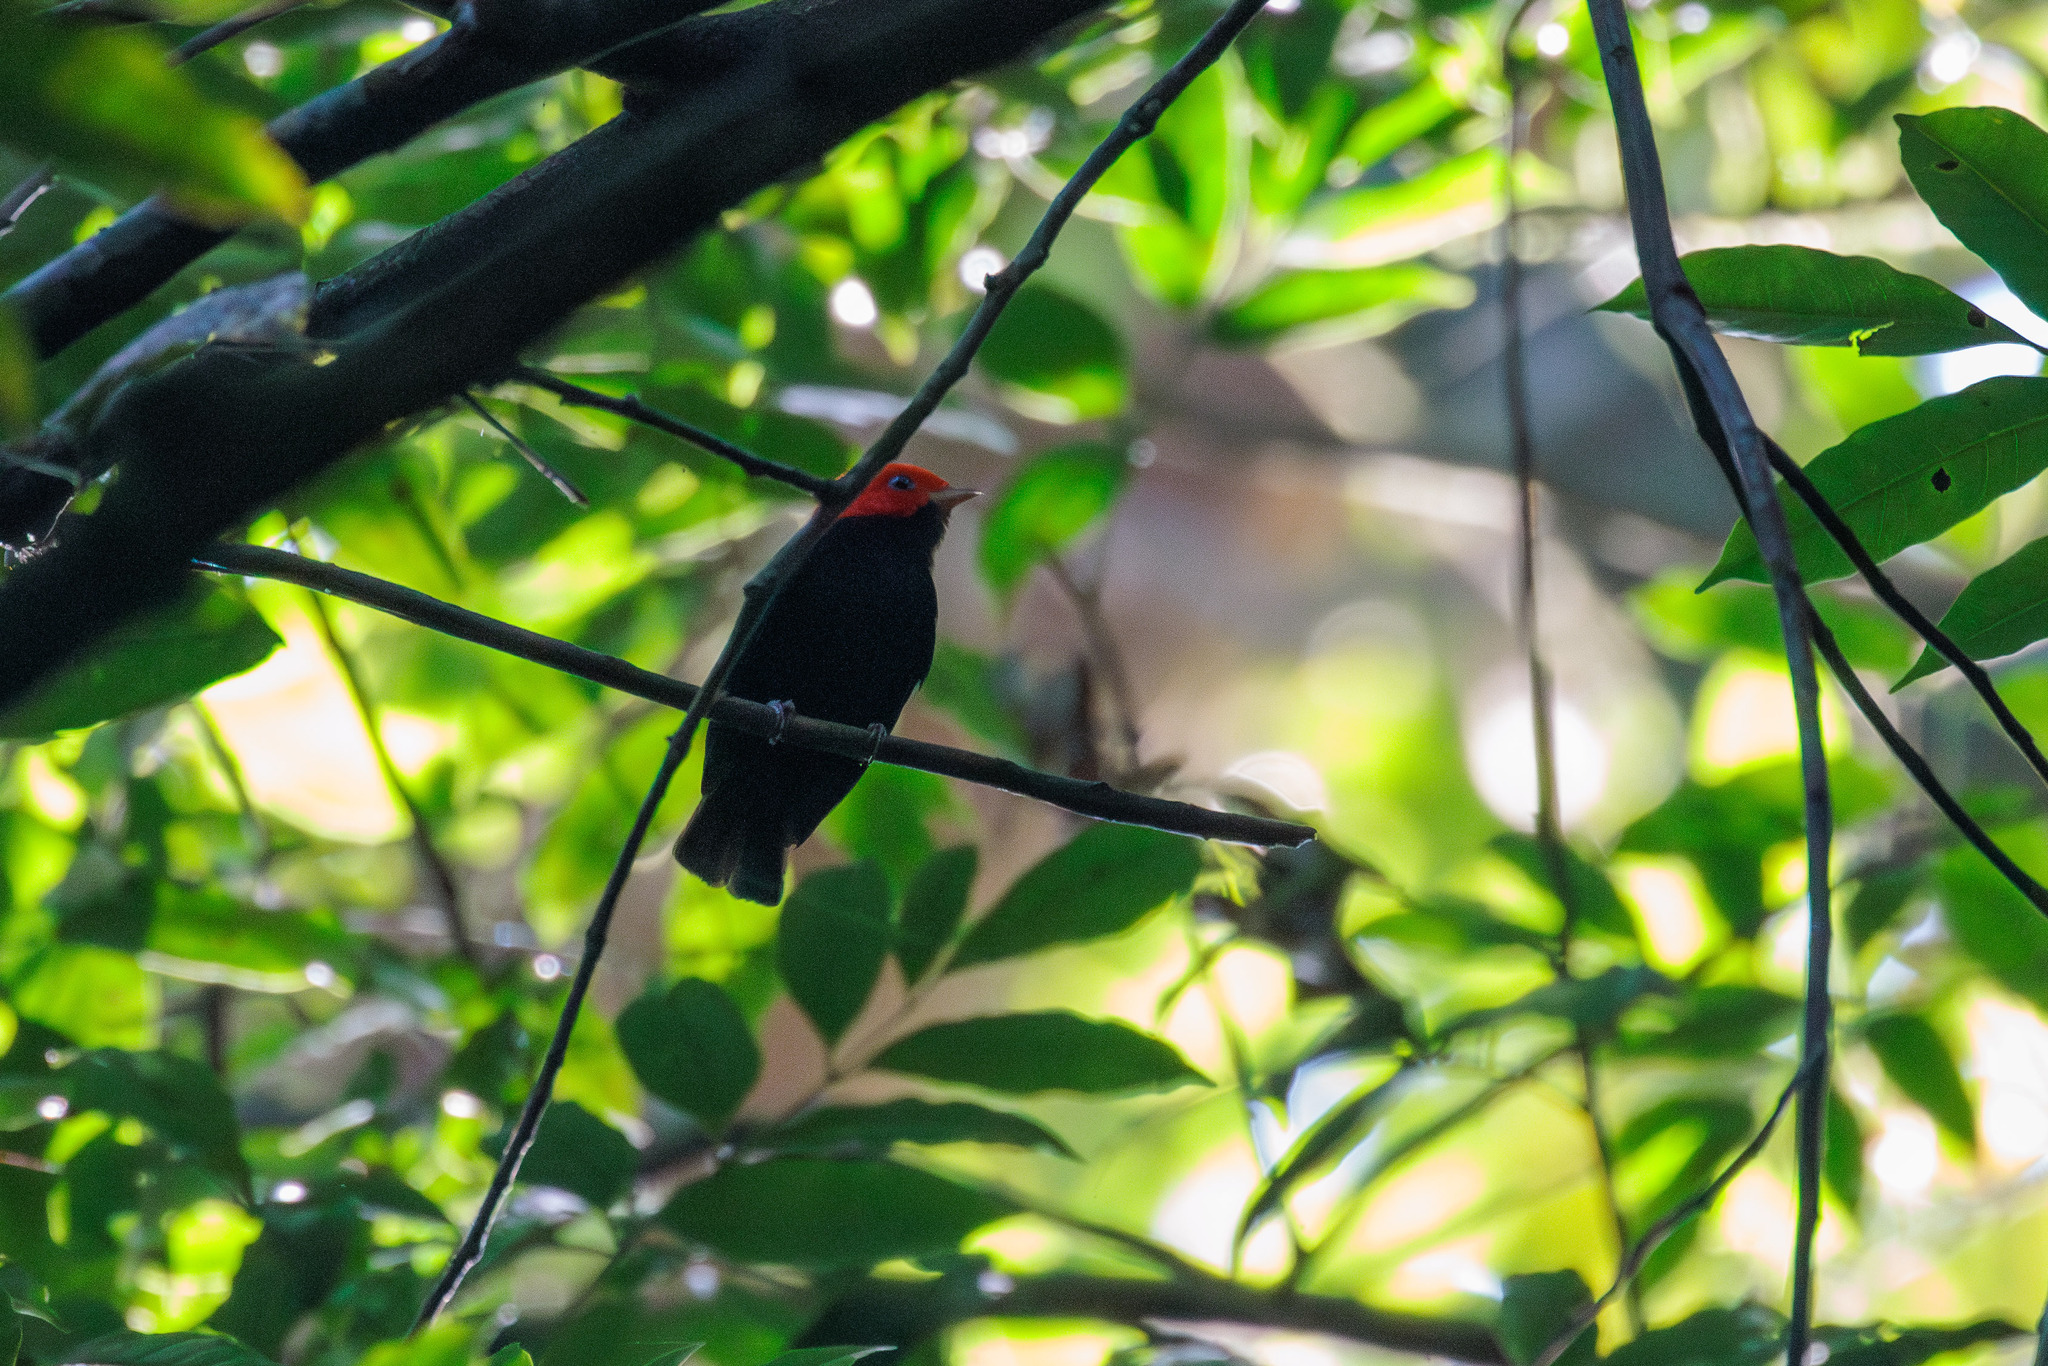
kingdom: Animalia
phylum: Chordata
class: Aves
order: Passeriformes
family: Pipridae
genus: Pipra
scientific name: Pipra rubrocapilla
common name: Red-headed manakin
